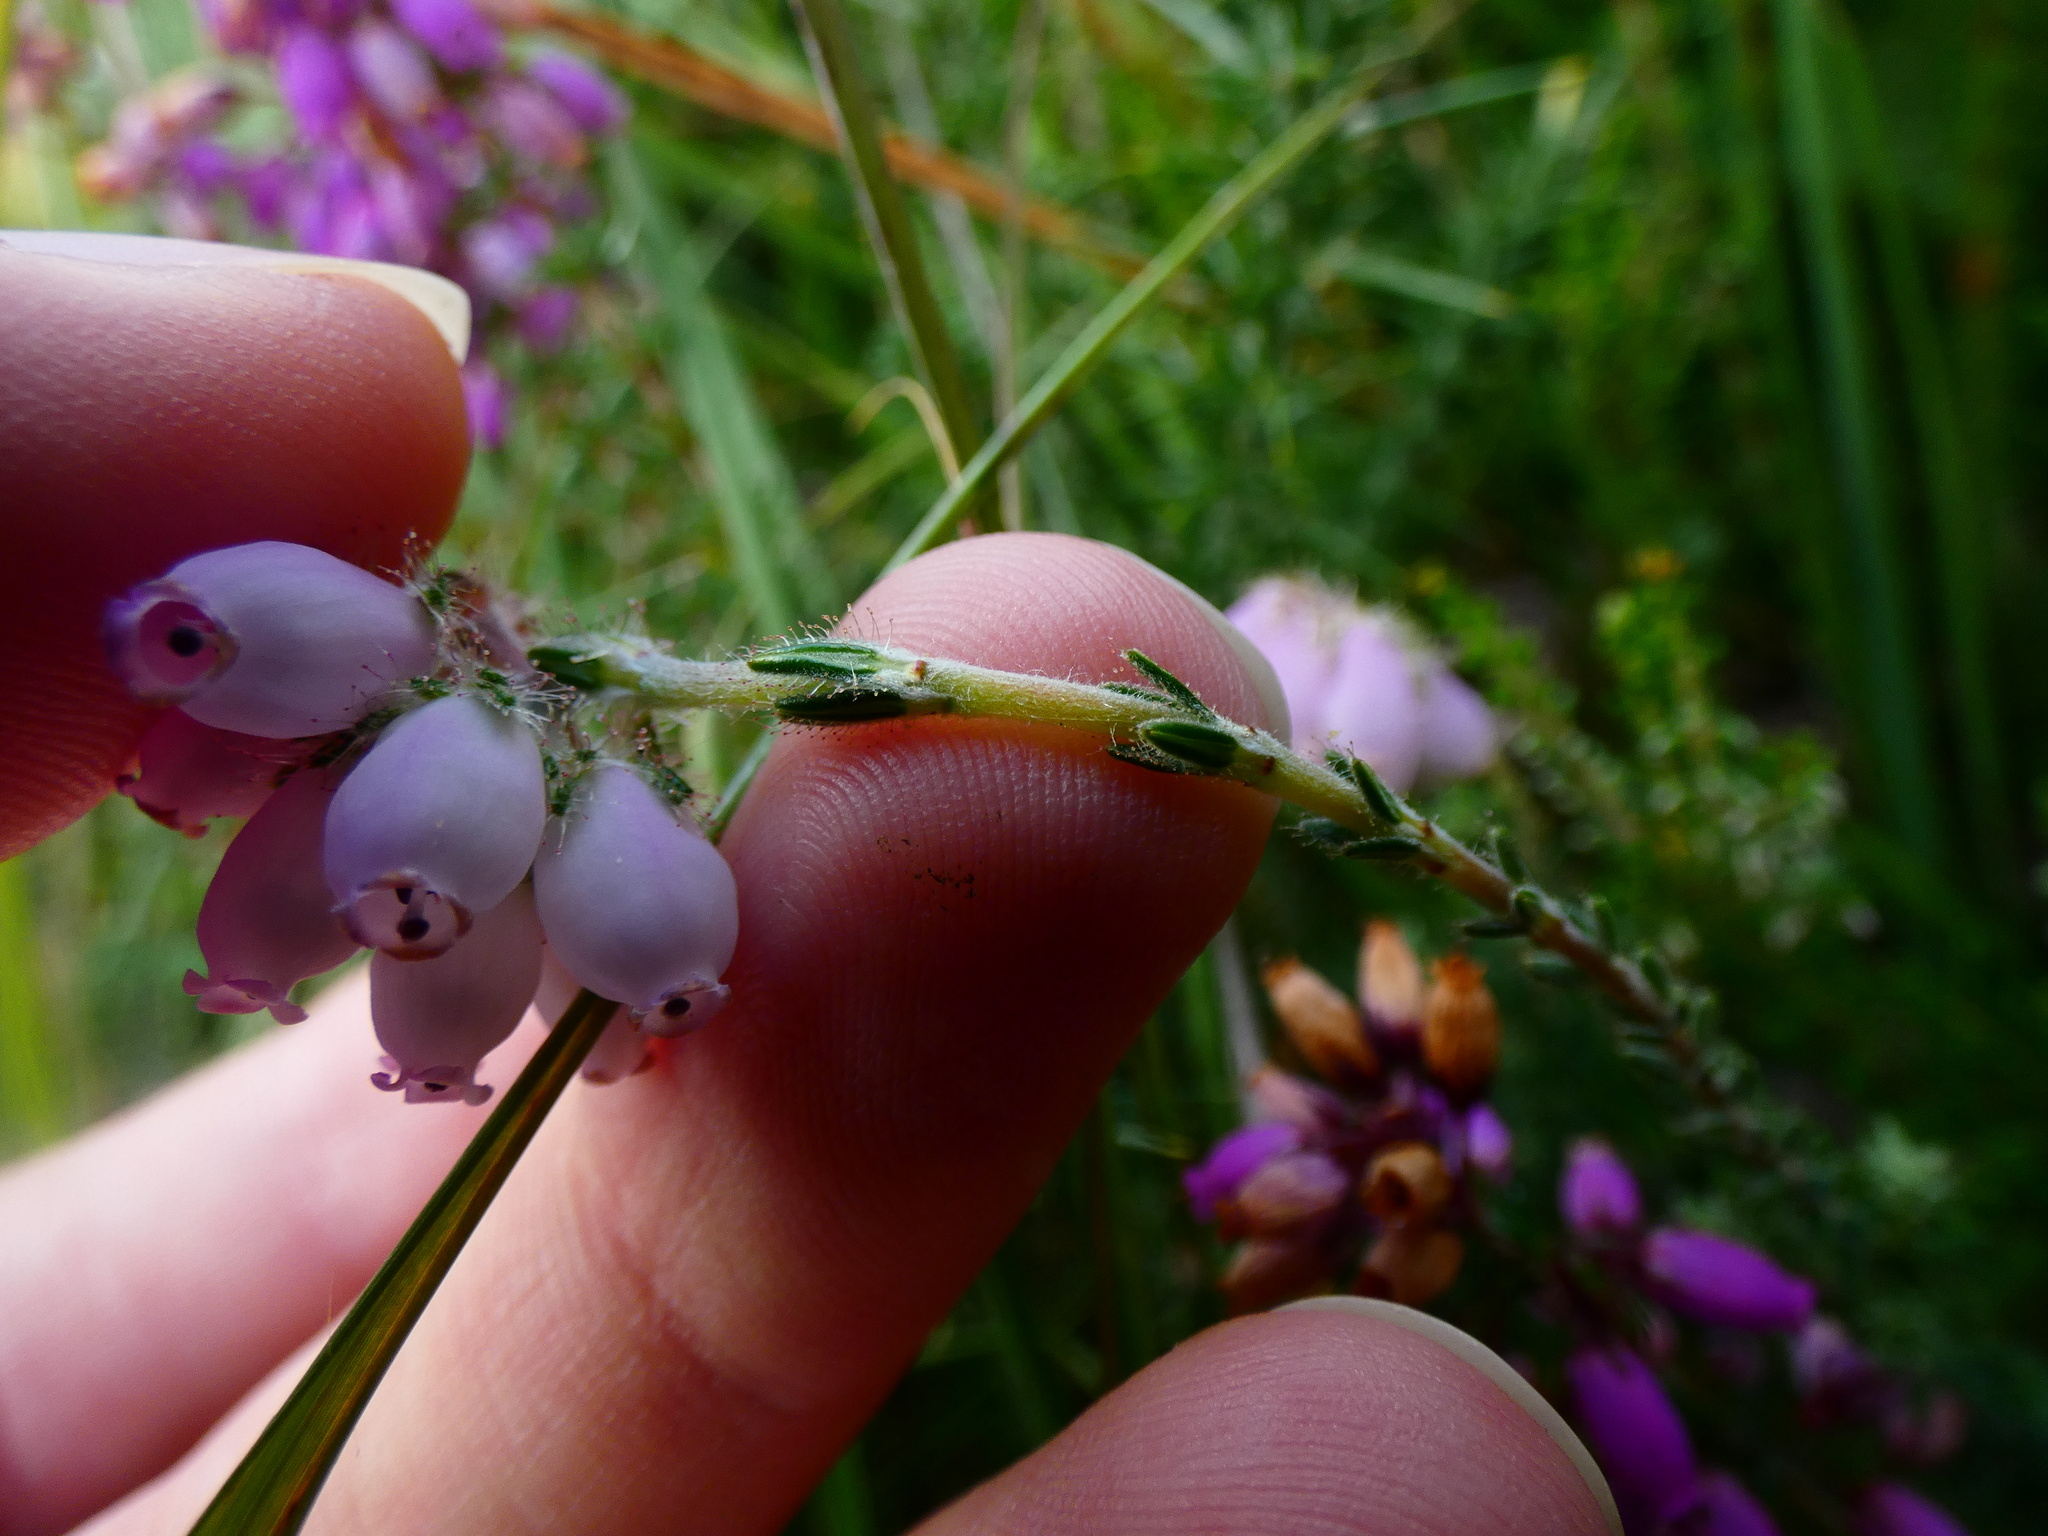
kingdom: Plantae
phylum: Tracheophyta
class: Magnoliopsida
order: Ericales
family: Ericaceae
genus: Erica
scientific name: Erica tetralix
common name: Cross-leaved heath
